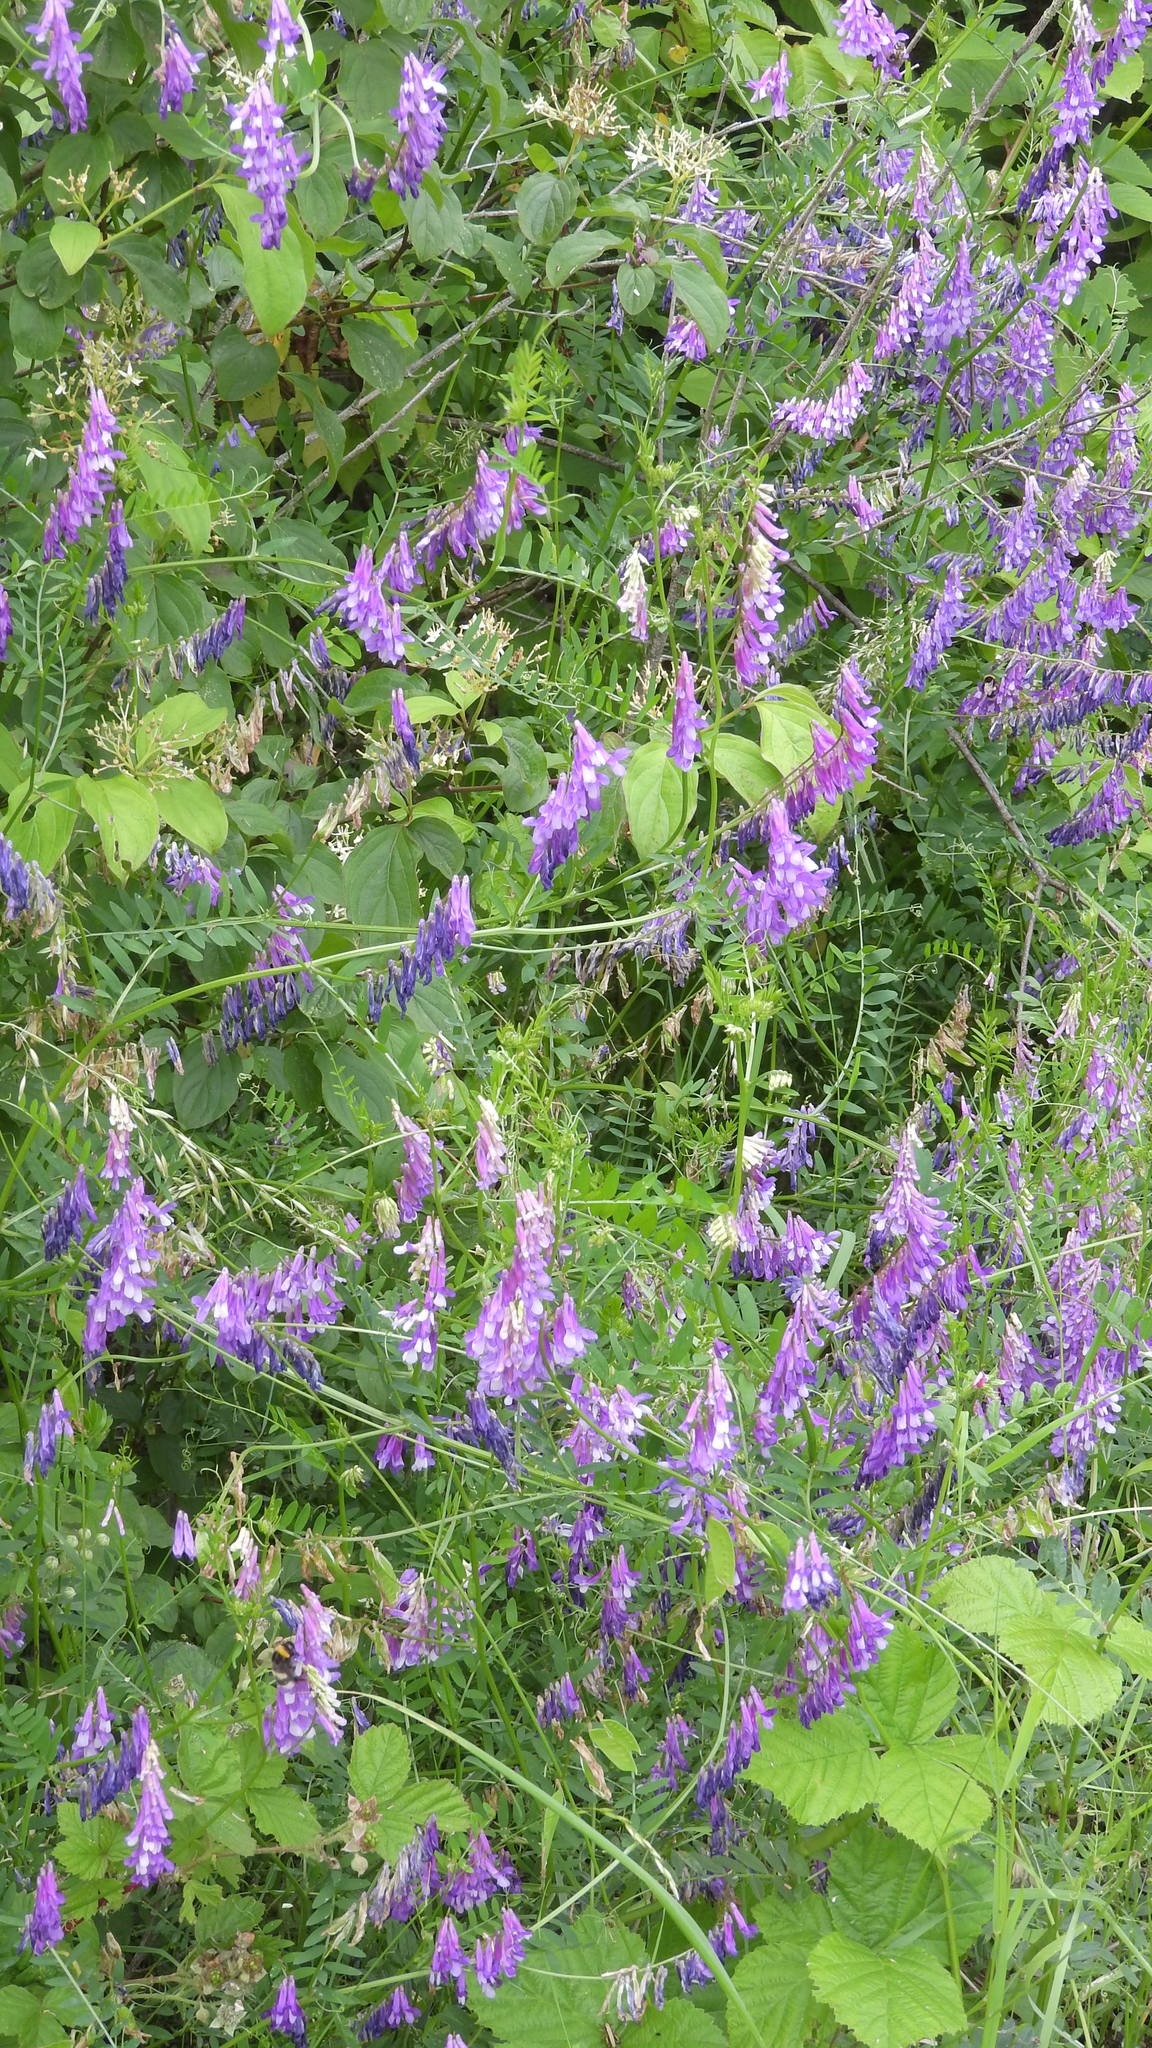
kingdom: Plantae
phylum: Tracheophyta
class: Magnoliopsida
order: Fabales
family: Fabaceae
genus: Vicia
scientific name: Vicia villosa
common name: Fodder vetch
